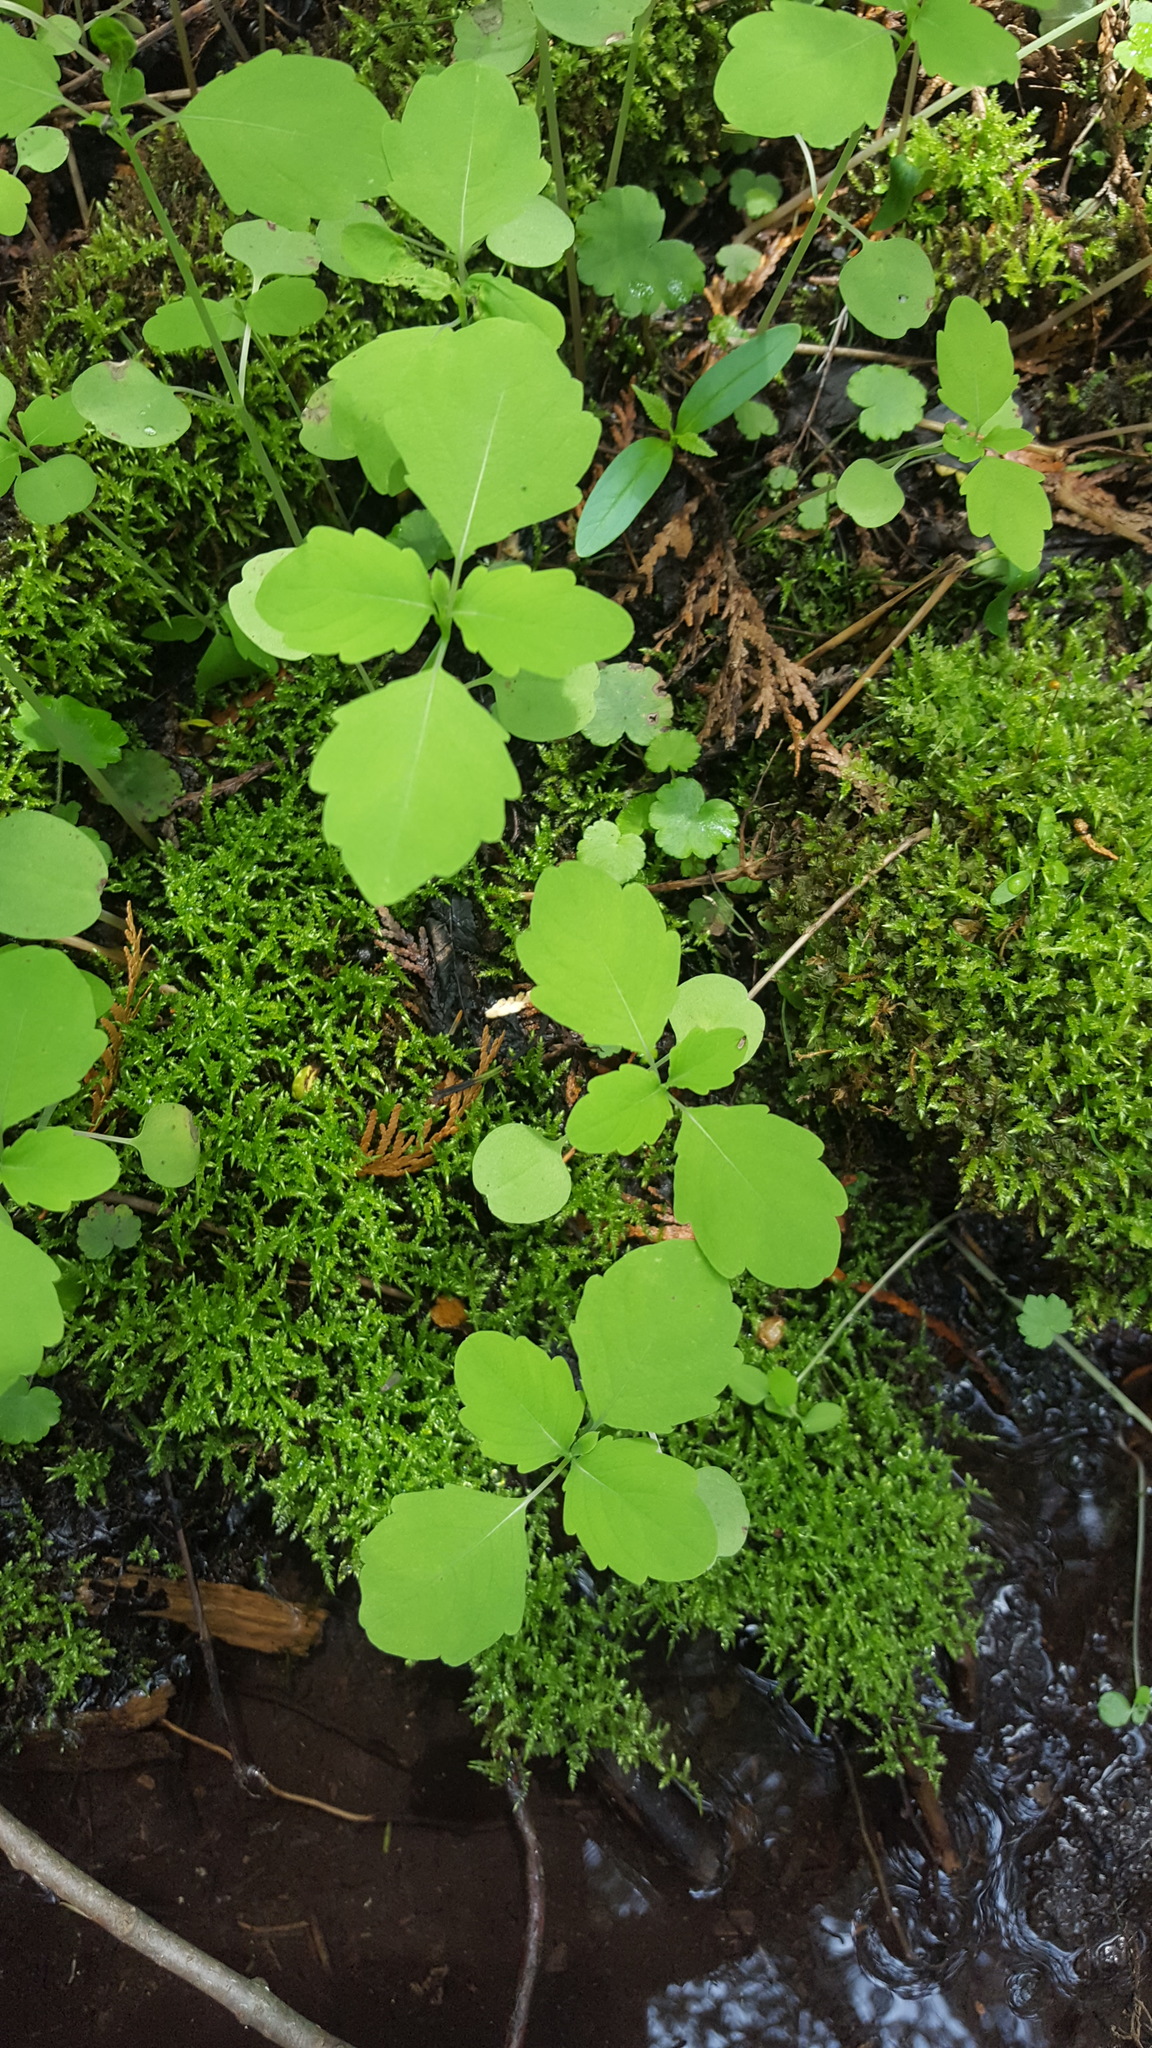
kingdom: Plantae
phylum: Tracheophyta
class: Magnoliopsida
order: Ericales
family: Balsaminaceae
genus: Impatiens
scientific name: Impatiens capensis
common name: Orange balsam
